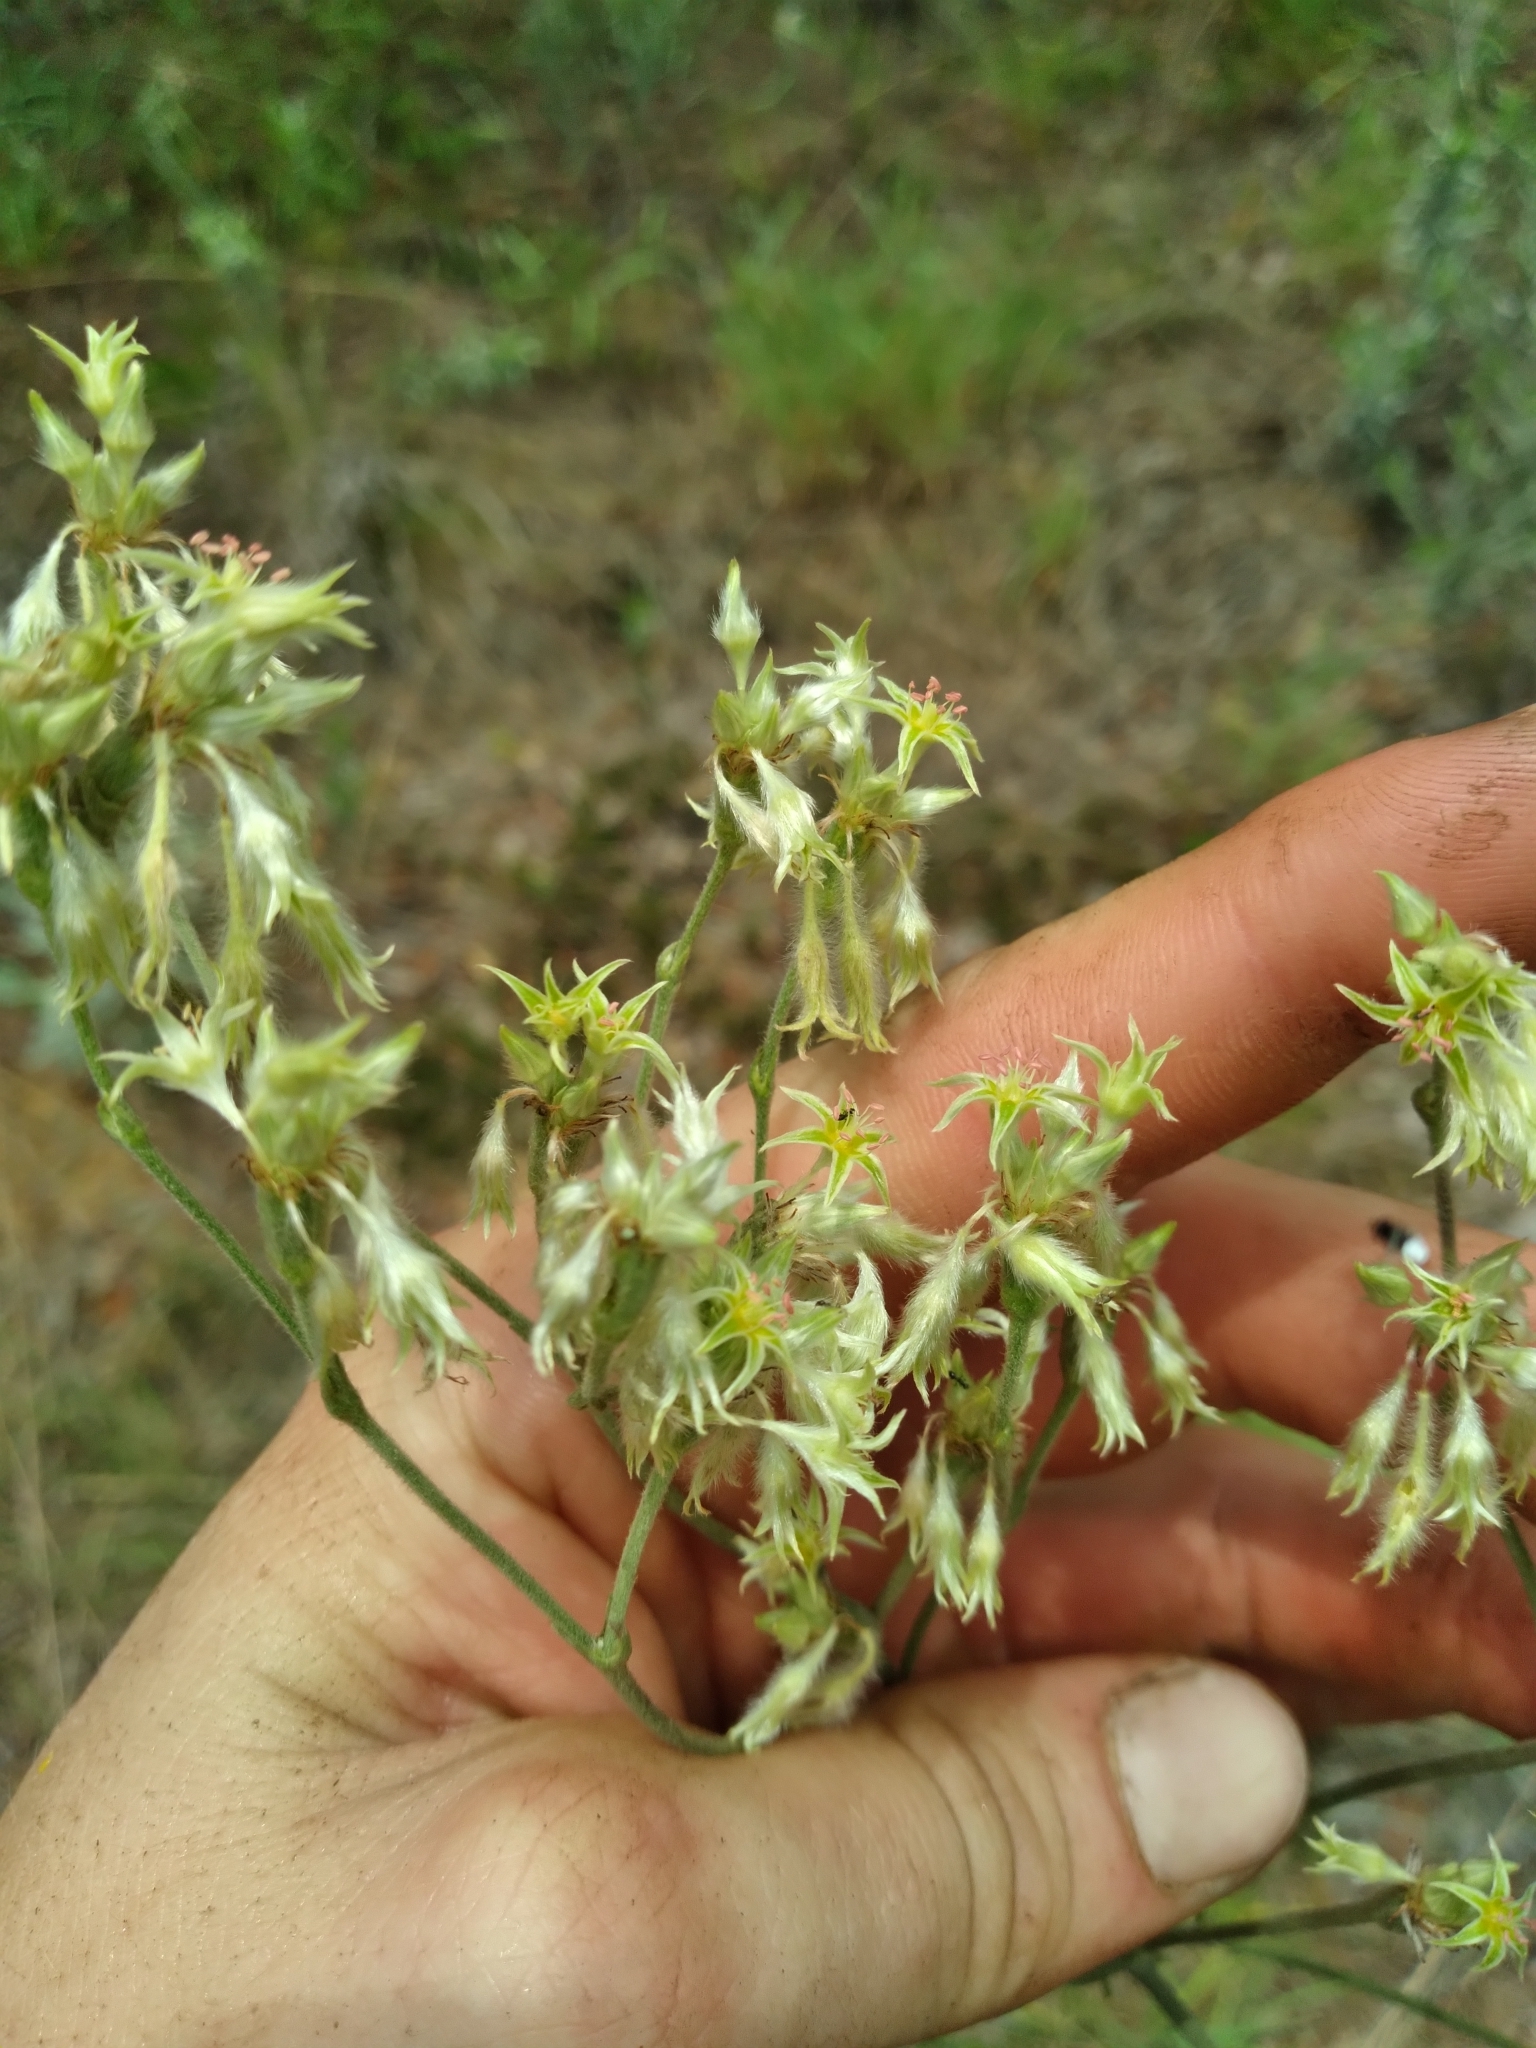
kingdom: Plantae
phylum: Tracheophyta
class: Magnoliopsida
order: Caryophyllales
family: Polygonaceae
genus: Eriogonum
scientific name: Eriogonum longifolium
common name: Longleaf wild buckwheat
